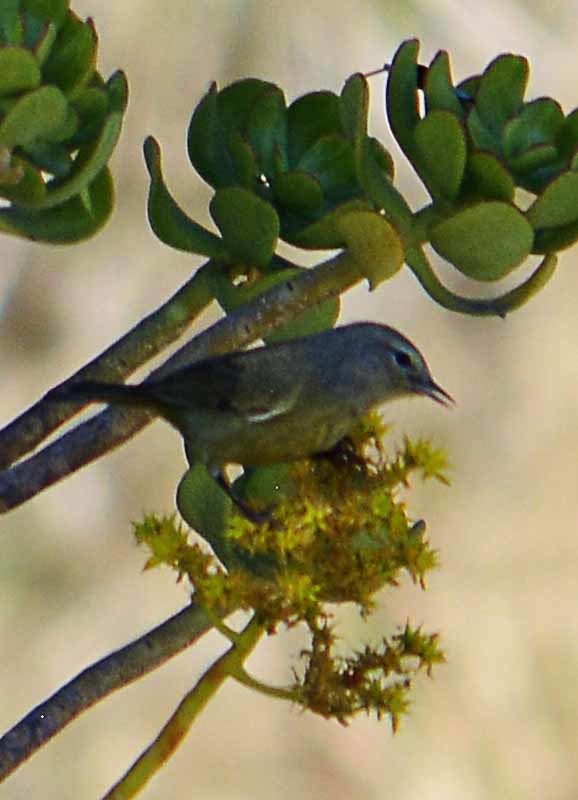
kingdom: Animalia
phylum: Chordata
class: Aves
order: Passeriformes
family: Parulidae
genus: Leiothlypis
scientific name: Leiothlypis celata
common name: Orange-crowned warbler
